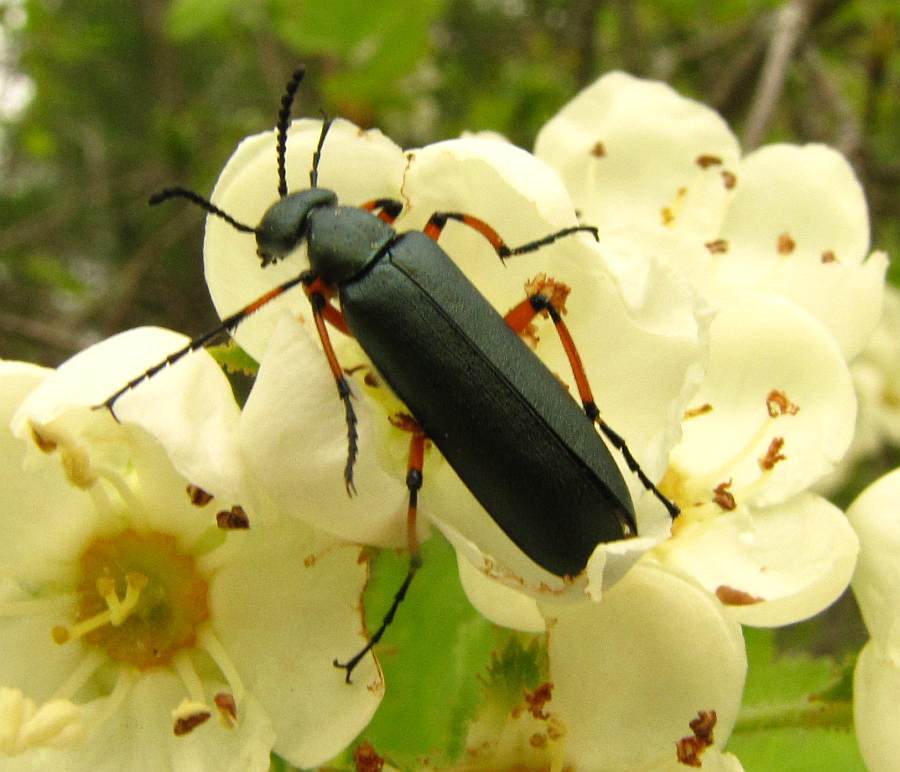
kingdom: Animalia
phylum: Arthropoda
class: Insecta
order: Coleoptera
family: Meloidae
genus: Lytta
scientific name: Lytta sayi
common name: Say's blister beetle
